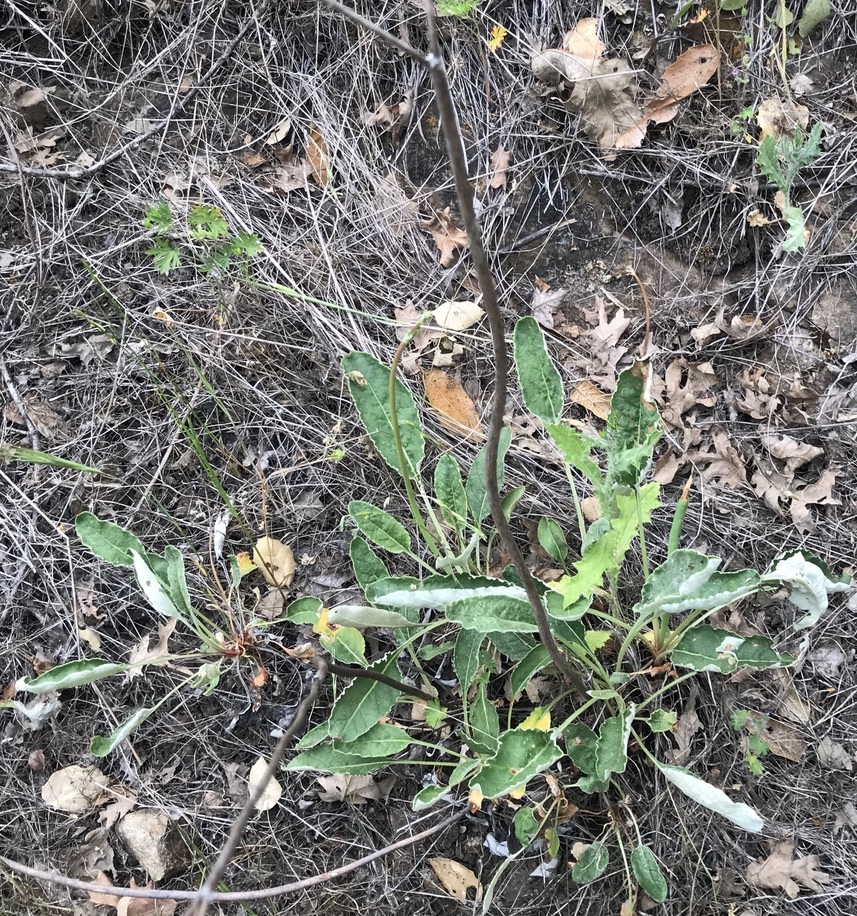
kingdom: Plantae
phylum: Tracheophyta
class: Magnoliopsida
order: Caryophyllales
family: Polygonaceae
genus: Eriogonum
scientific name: Eriogonum nudum
